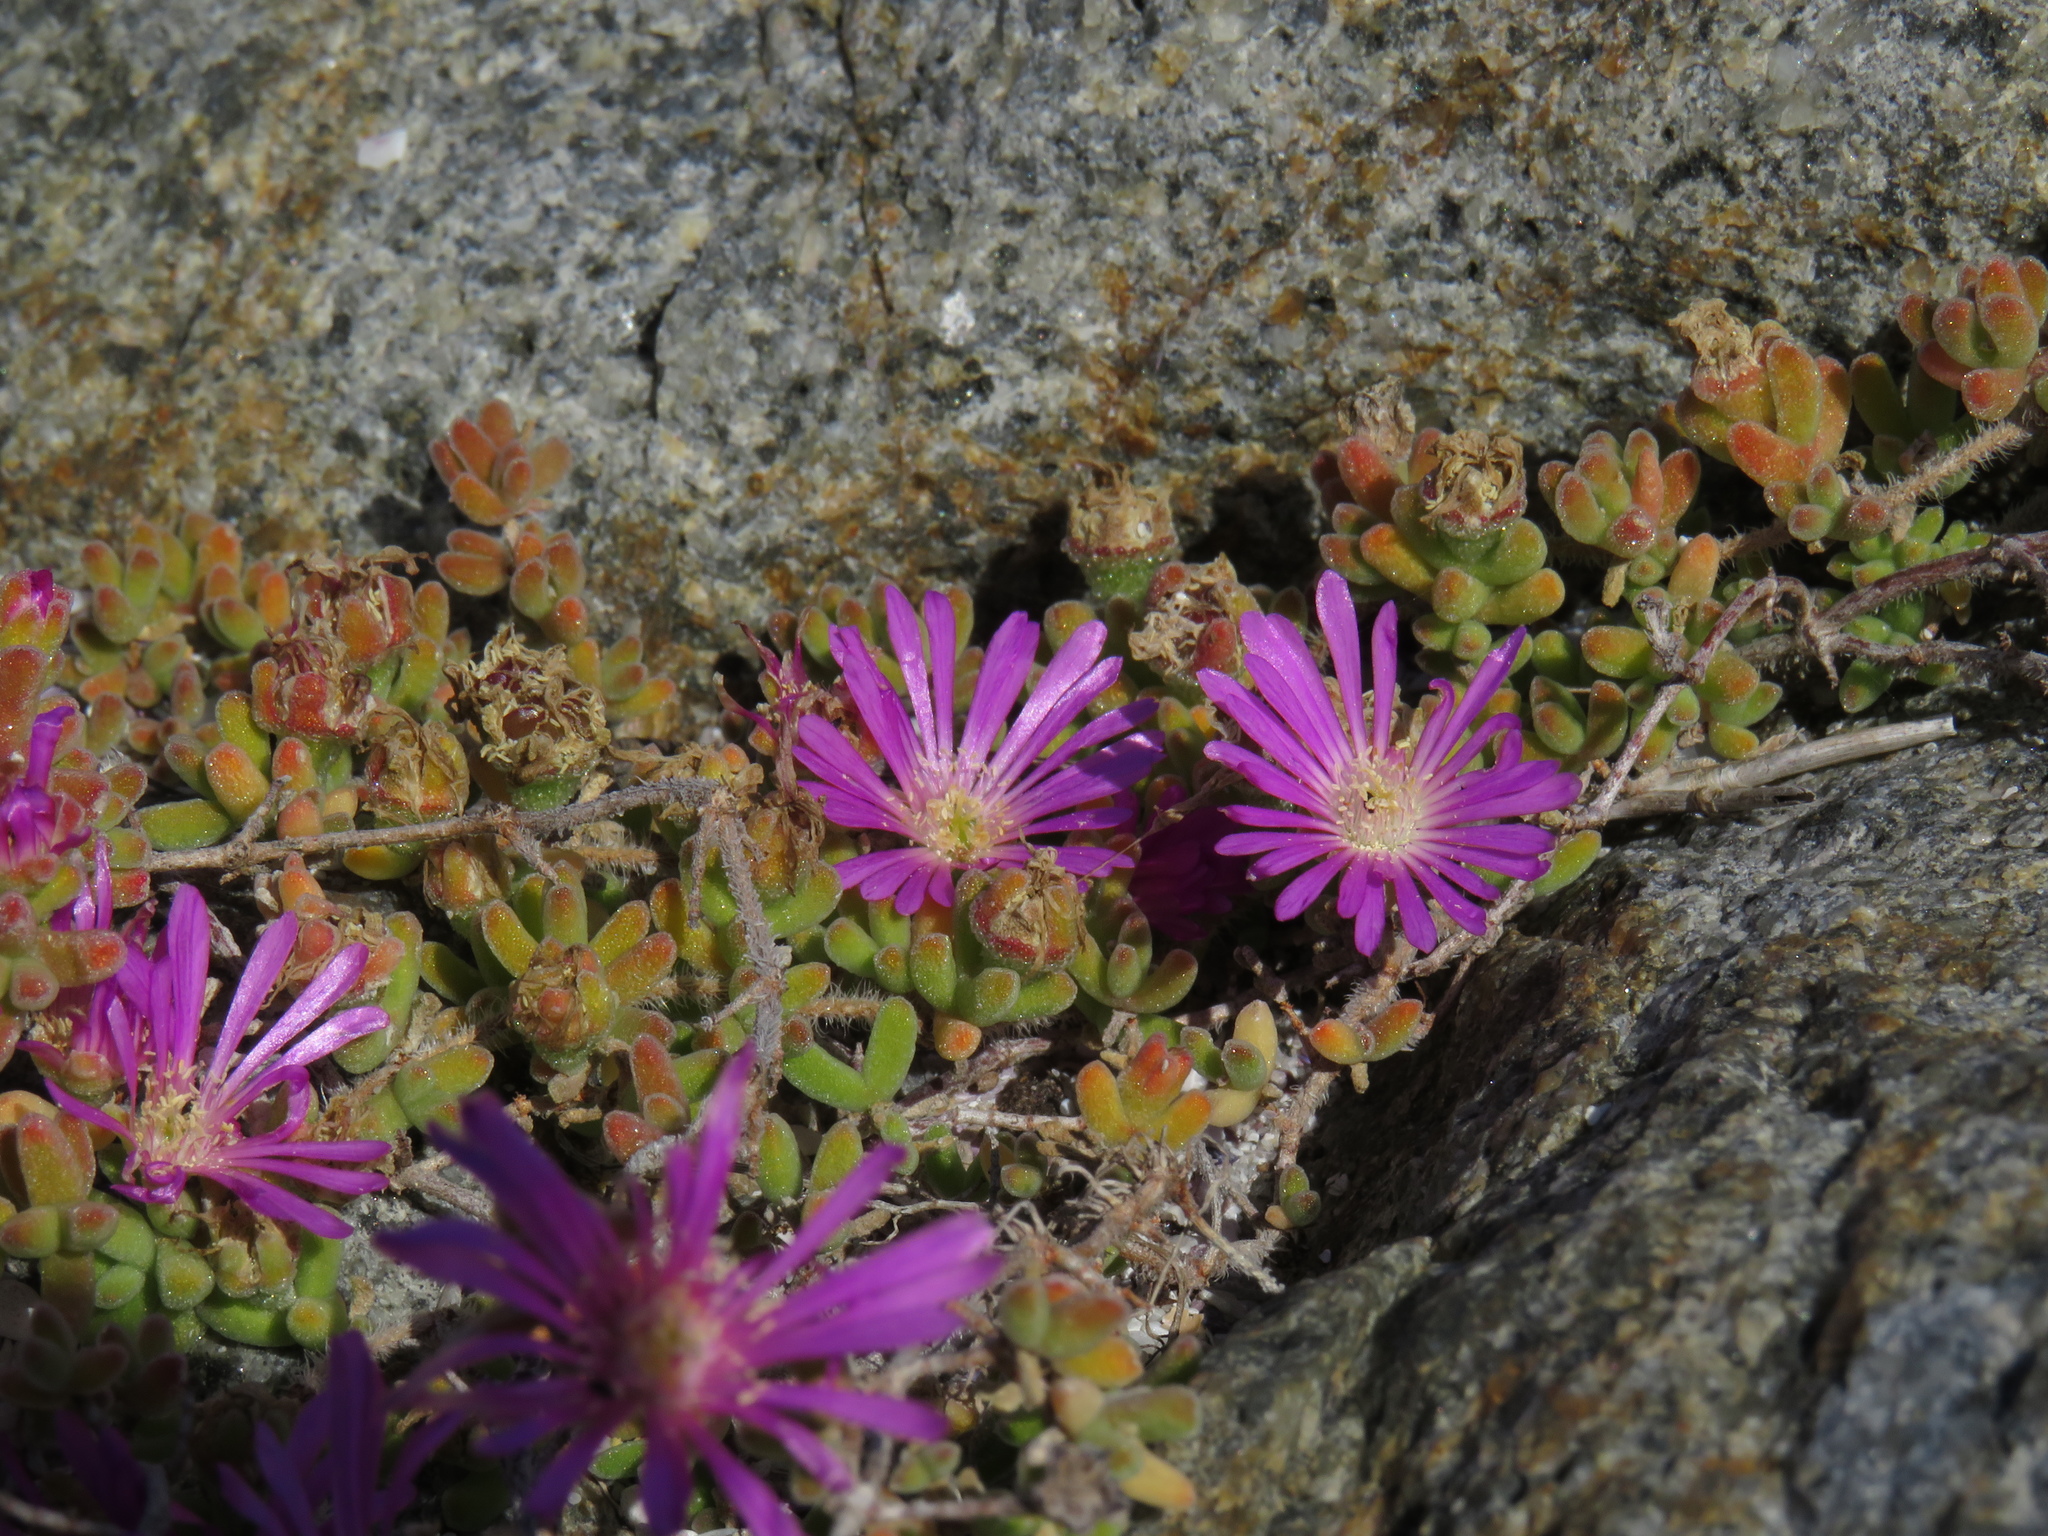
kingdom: Plantae
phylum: Tracheophyta
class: Magnoliopsida
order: Caryophyllales
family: Aizoaceae
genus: Drosanthemum
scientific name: Drosanthemum floribundum
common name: Pale dewplant
